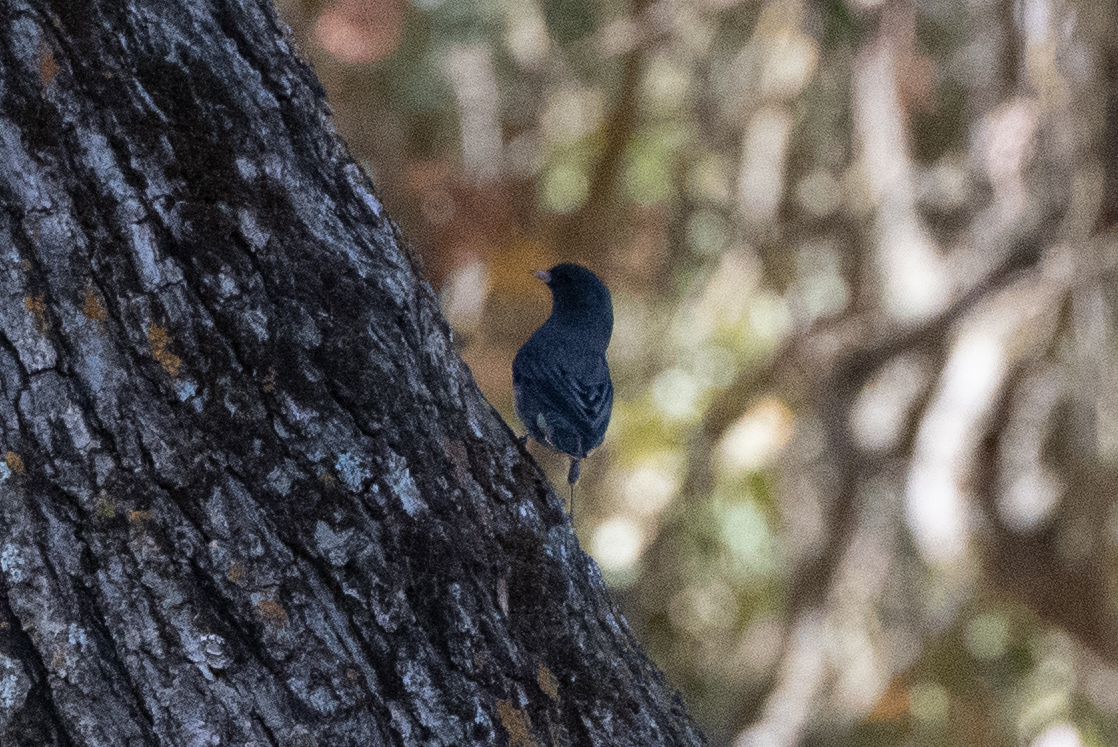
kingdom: Animalia
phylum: Chordata
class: Aves
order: Passeriformes
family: Passerellidae
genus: Junco
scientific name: Junco hyemalis
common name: Dark-eyed junco
